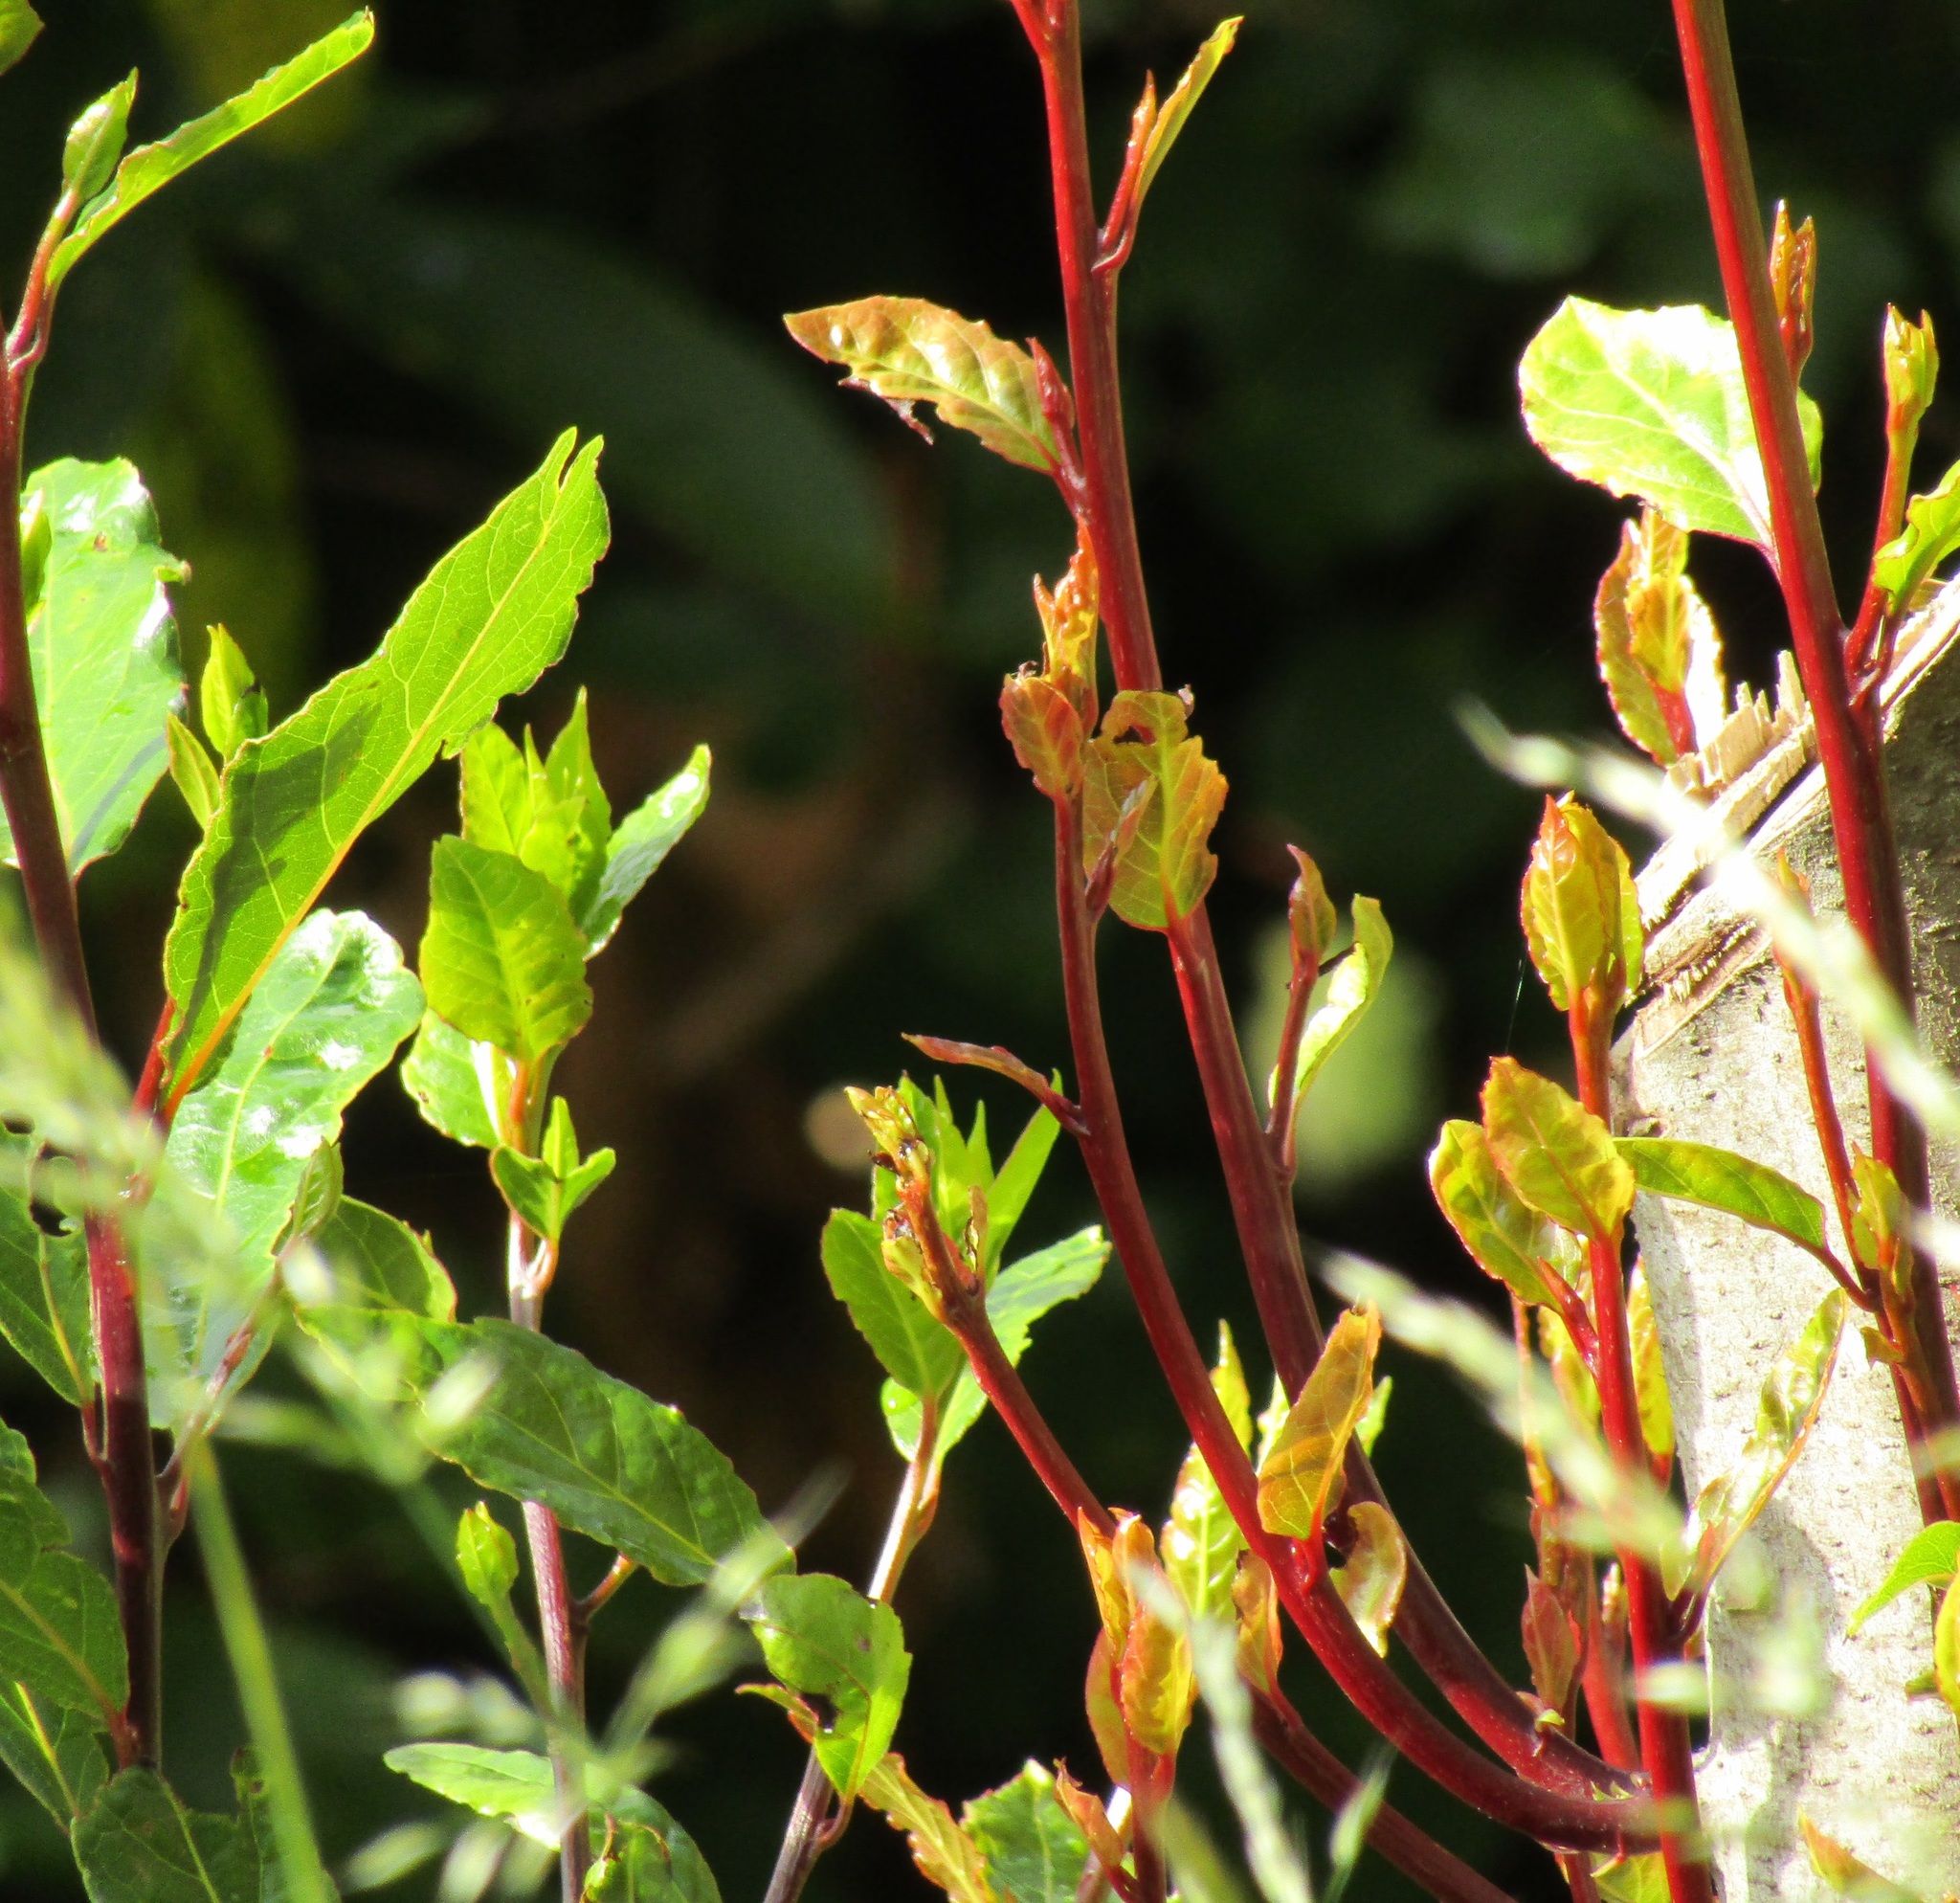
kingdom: Plantae
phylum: Tracheophyta
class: Magnoliopsida
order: Laurales
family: Lauraceae
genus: Laurus
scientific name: Laurus nobilis
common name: Bay
